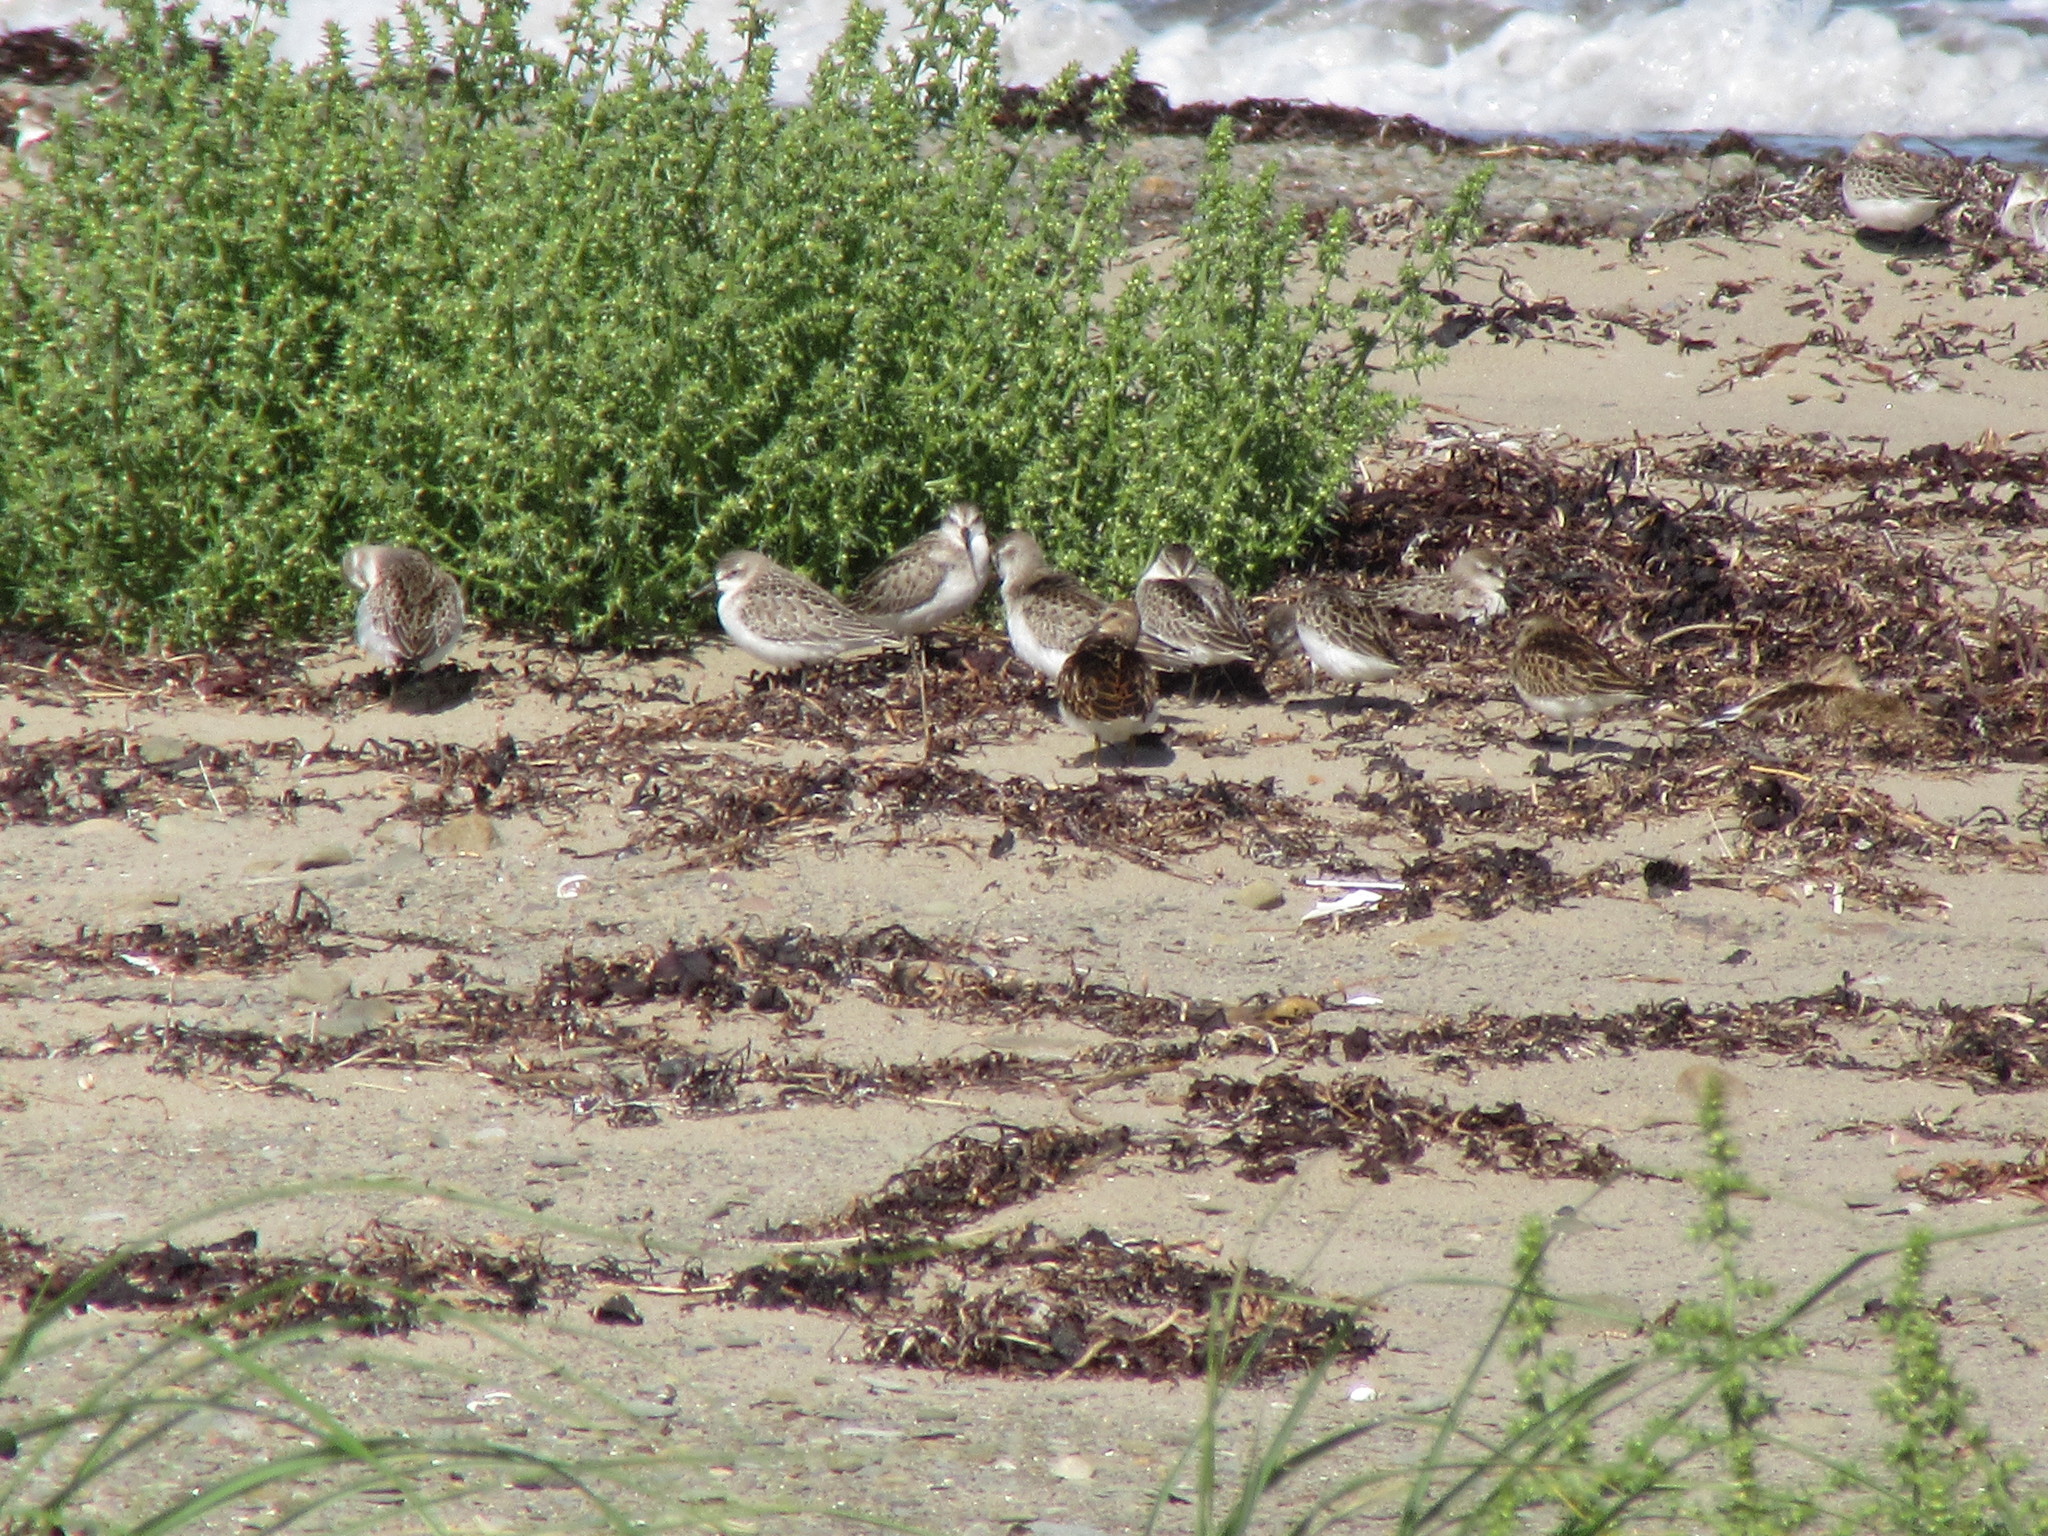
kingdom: Animalia
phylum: Chordata
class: Aves
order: Charadriiformes
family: Scolopacidae
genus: Calidris
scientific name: Calidris pusilla
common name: Semipalmated sandpiper
